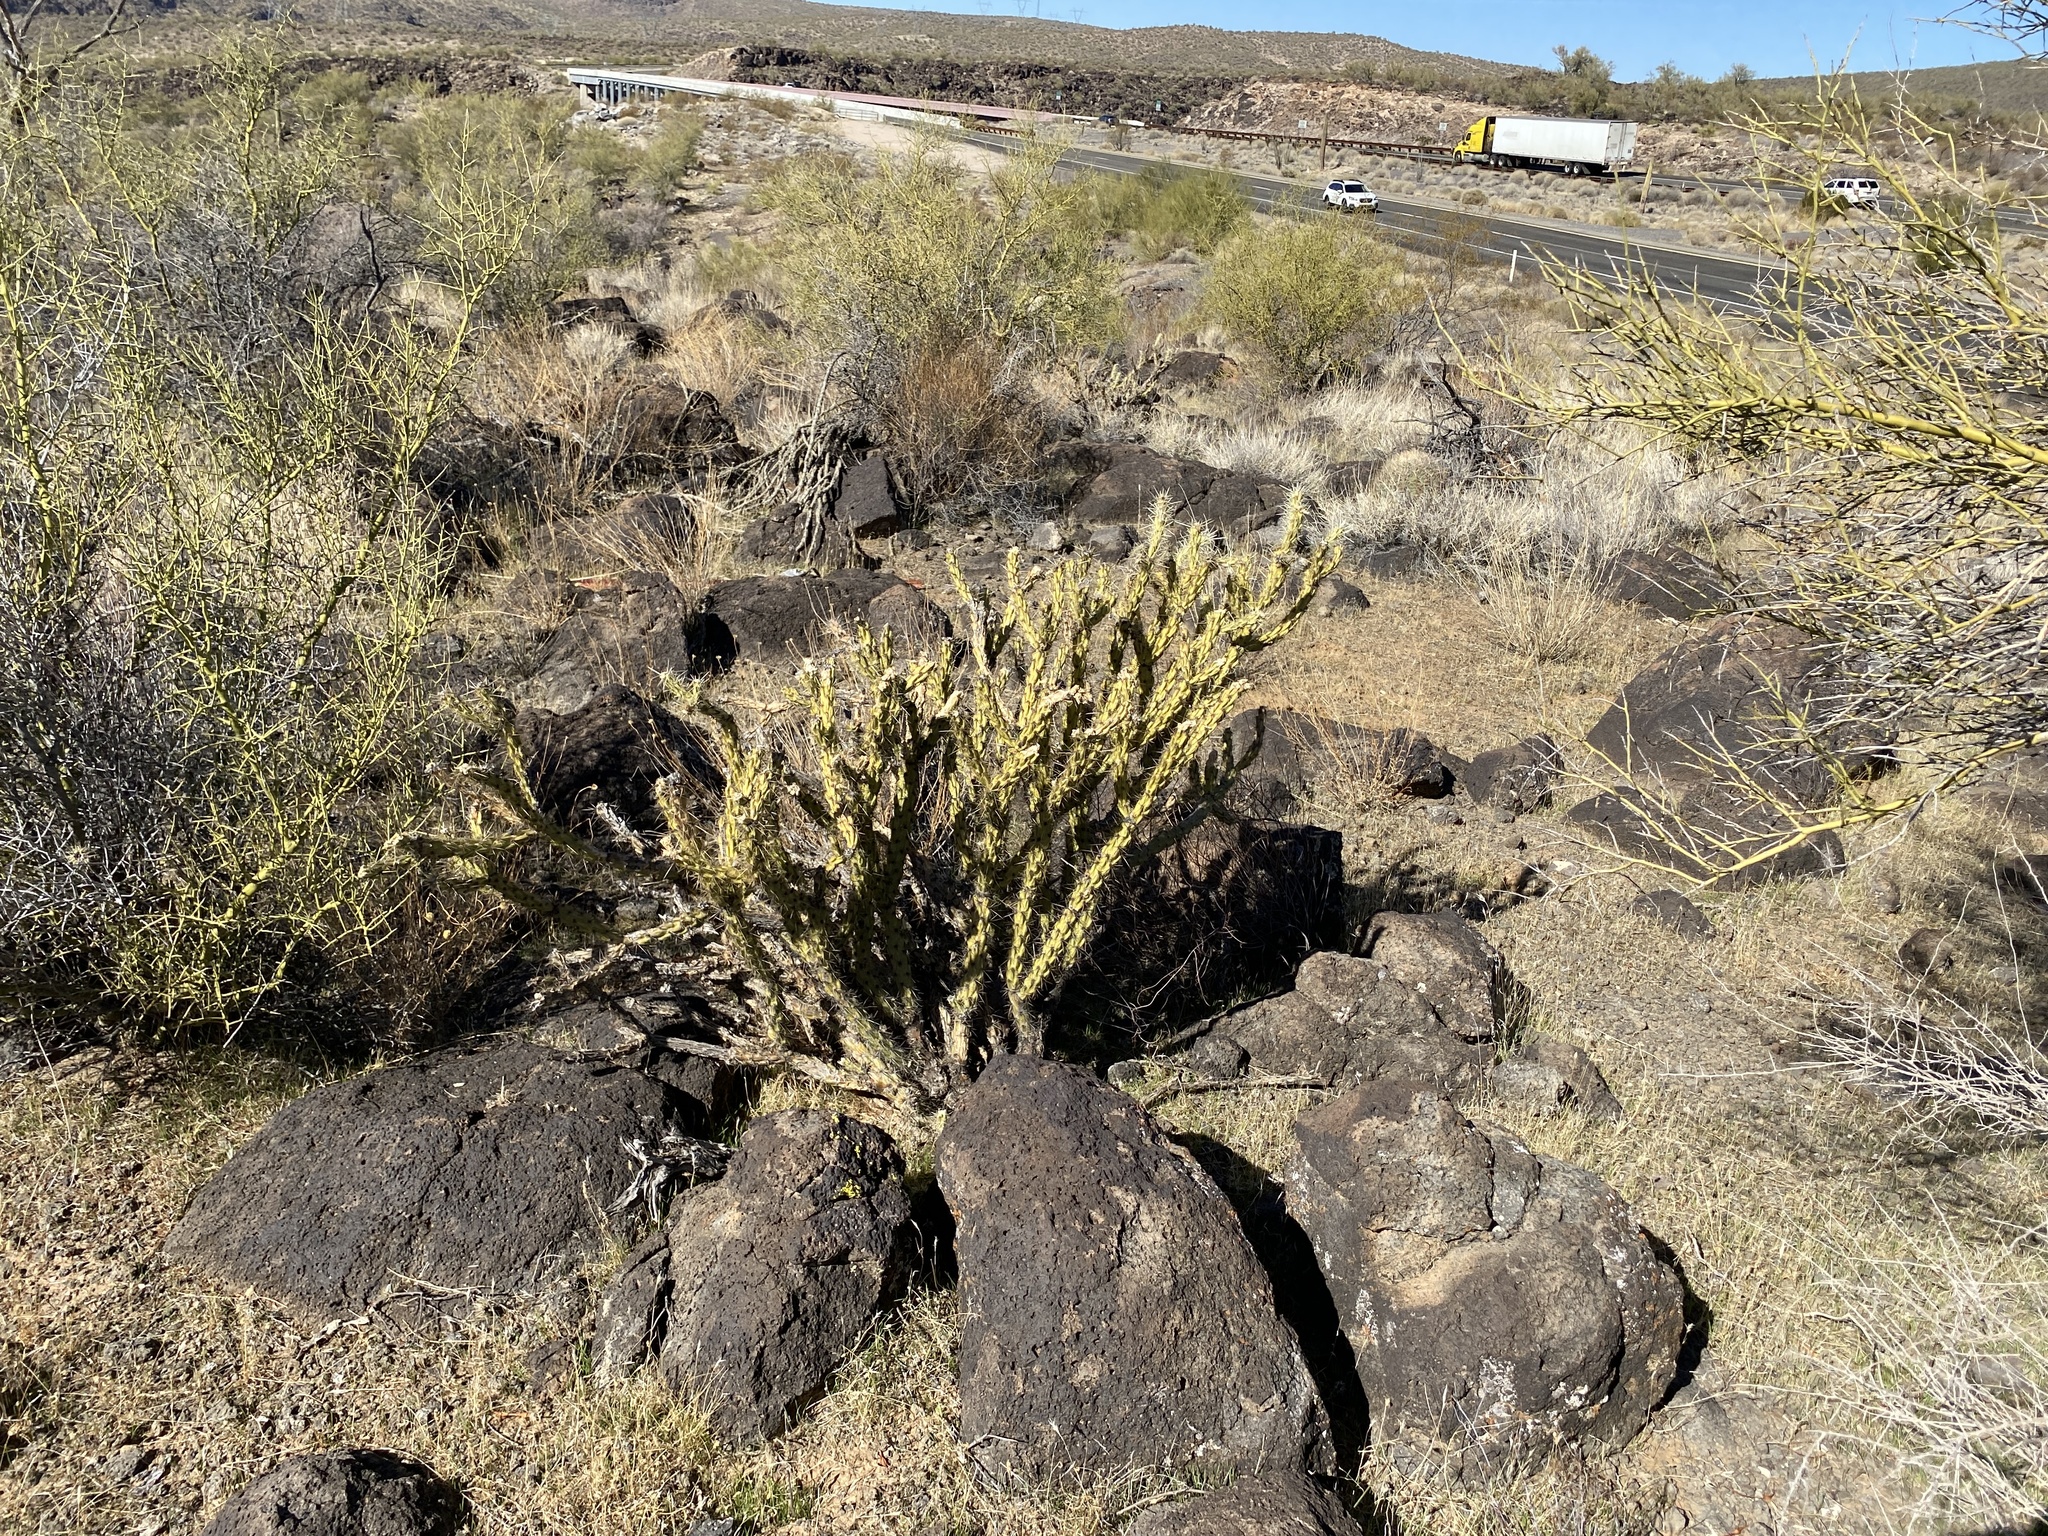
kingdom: Plantae
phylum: Tracheophyta
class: Magnoliopsida
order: Caryophyllales
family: Cactaceae
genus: Cylindropuntia
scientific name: Cylindropuntia acanthocarpa
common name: Buckhorn cholla
